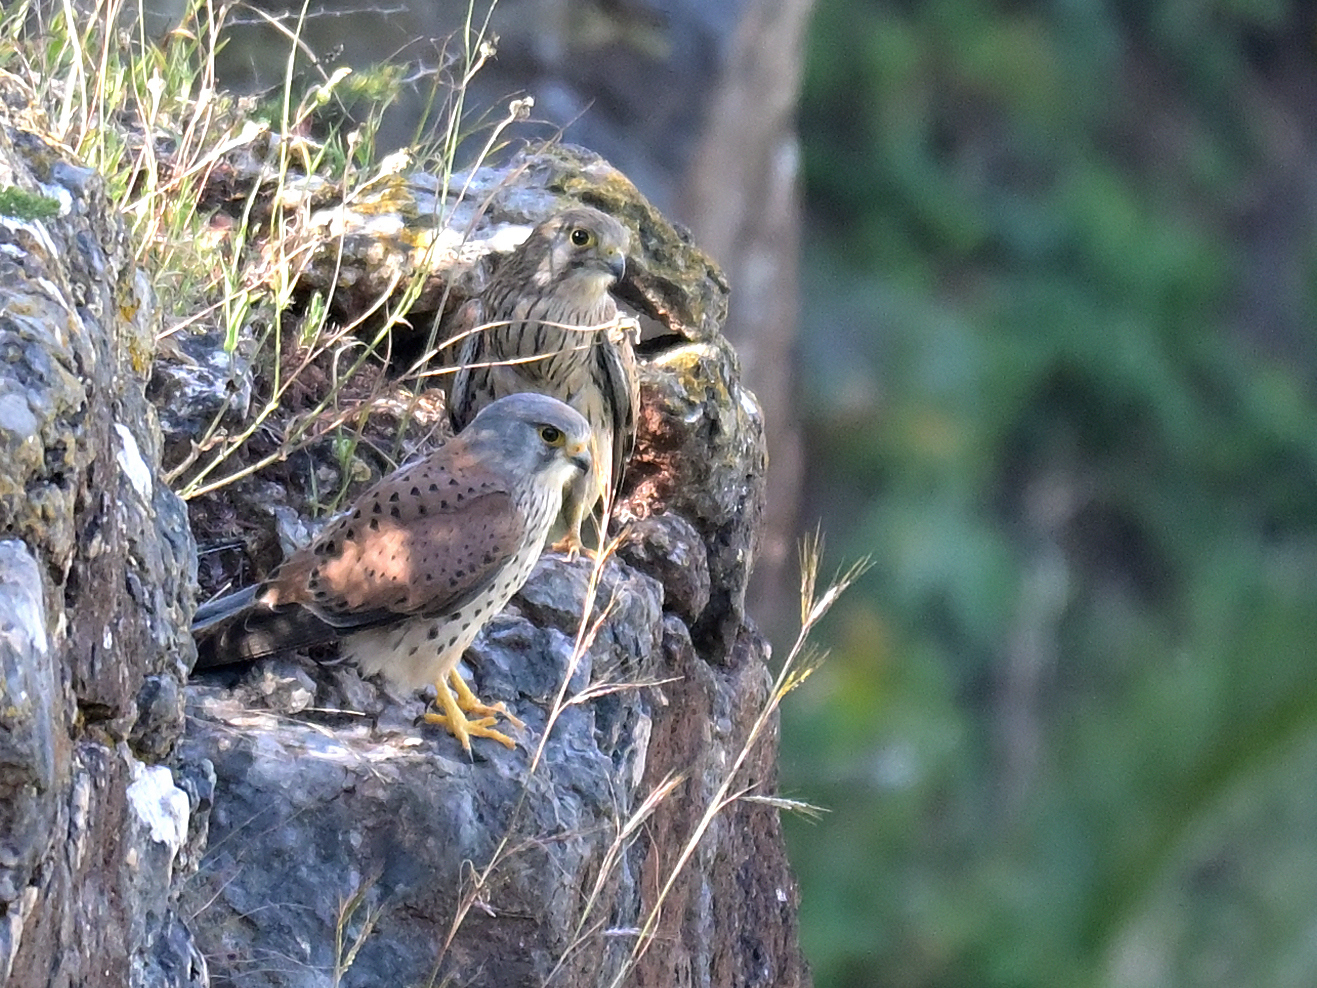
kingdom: Animalia
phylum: Chordata
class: Aves
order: Falconiformes
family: Falconidae
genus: Falco
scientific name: Falco tinnunculus
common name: Common kestrel
